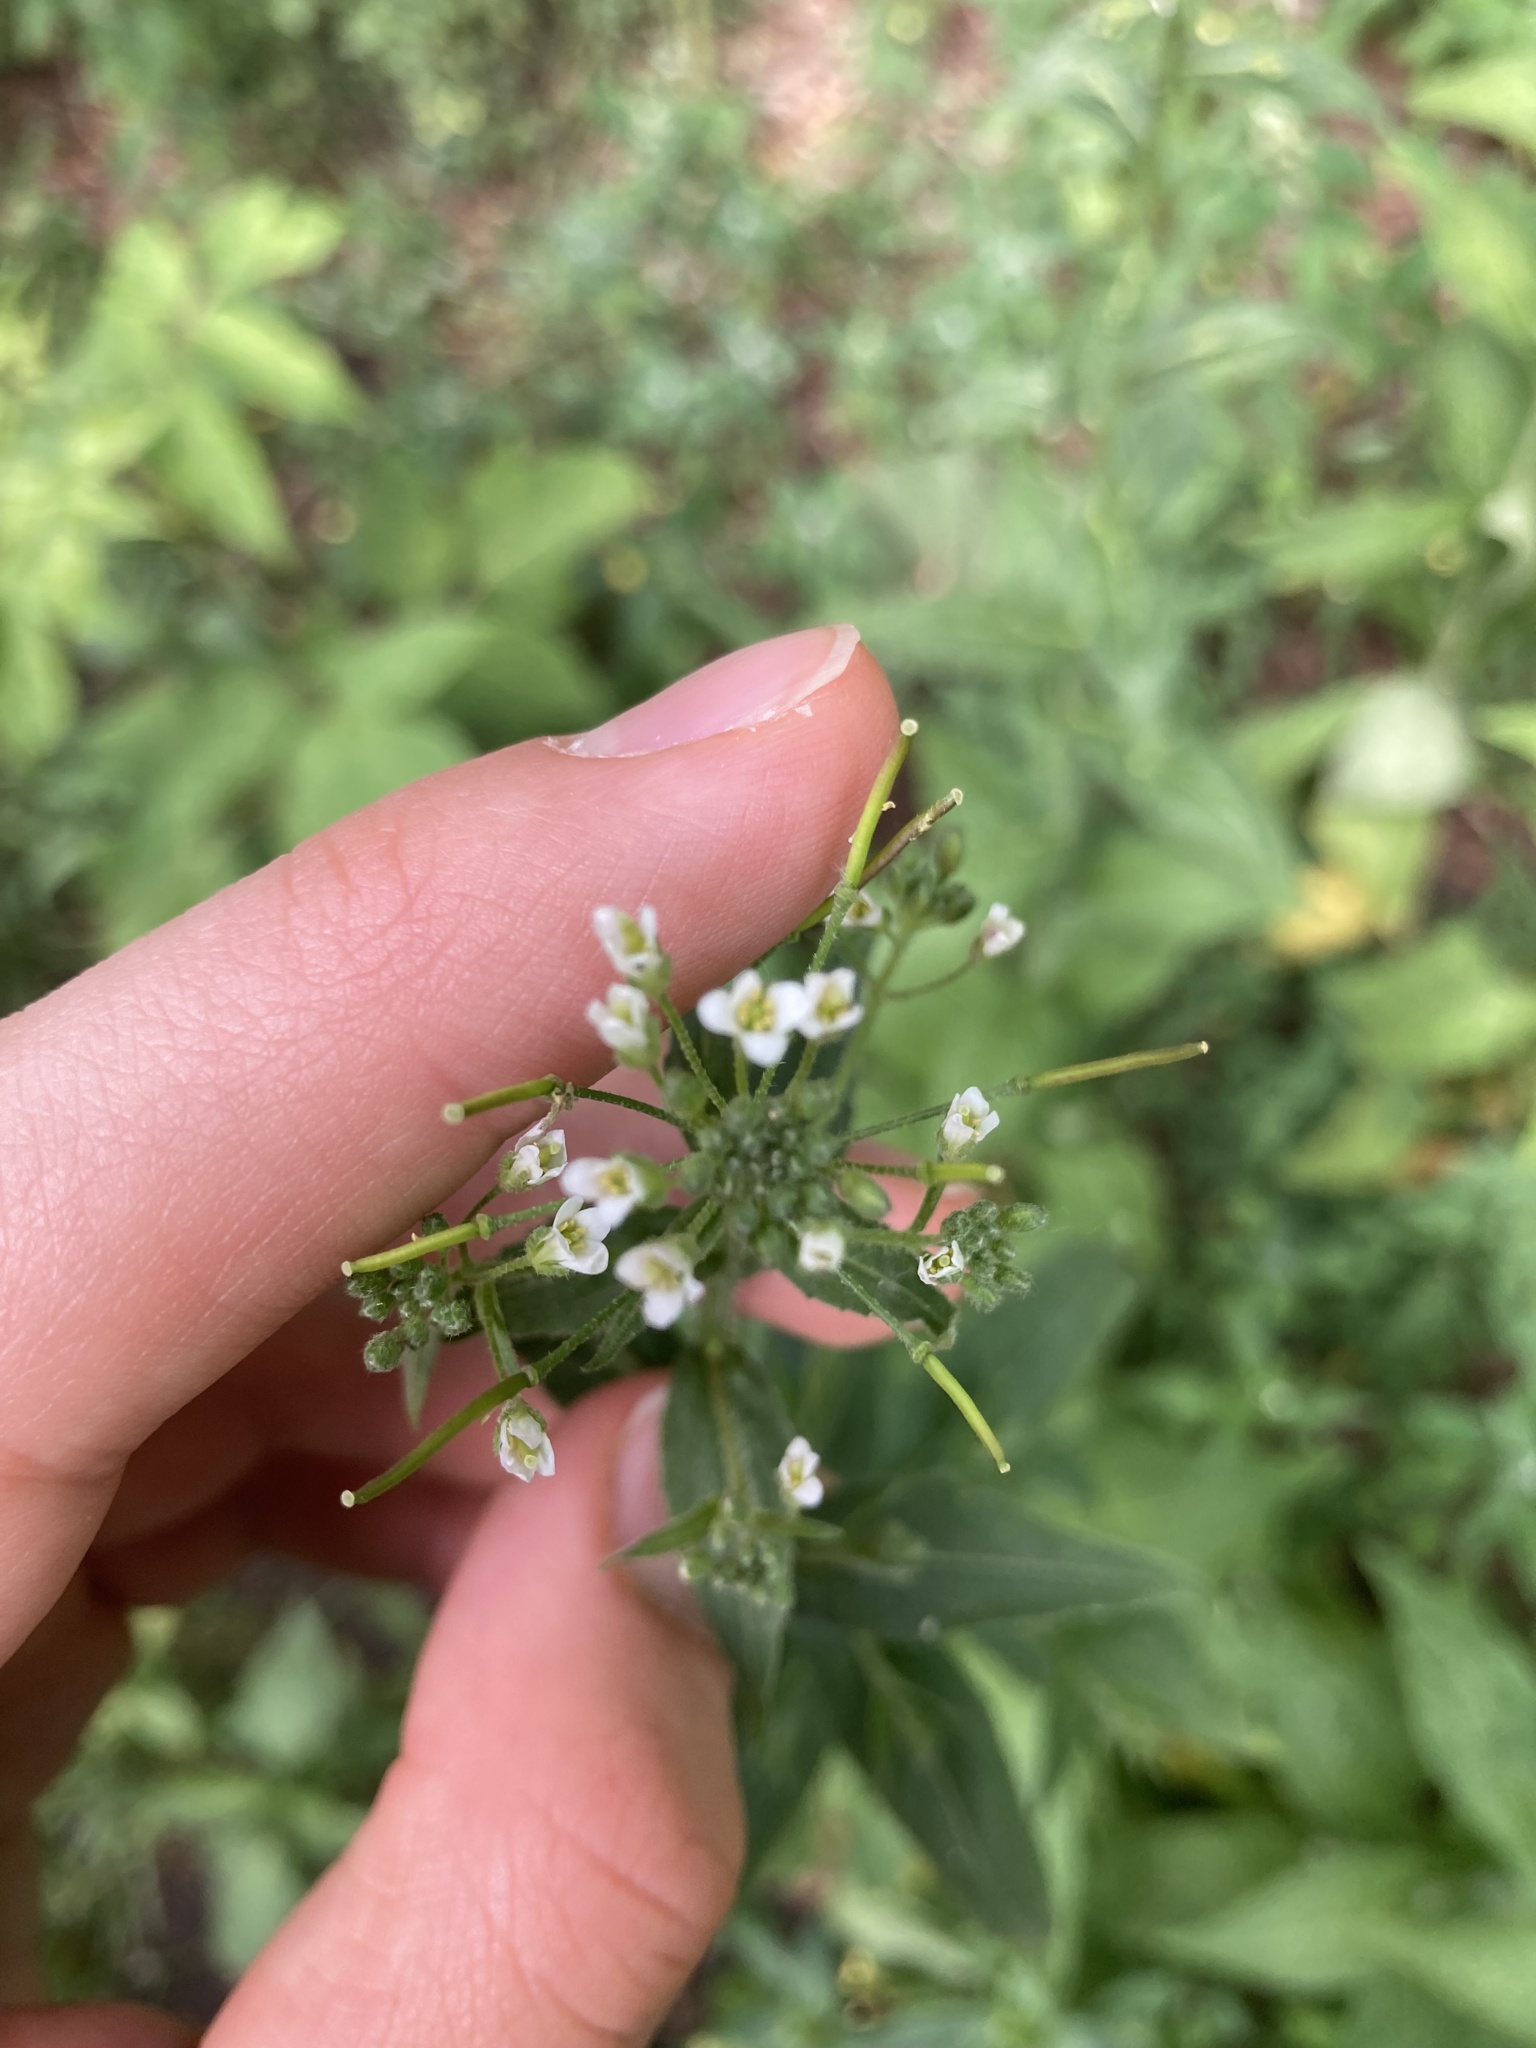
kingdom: Plantae
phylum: Tracheophyta
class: Magnoliopsida
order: Brassicales
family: Brassicaceae
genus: Catolobus
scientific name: Catolobus pendulus
